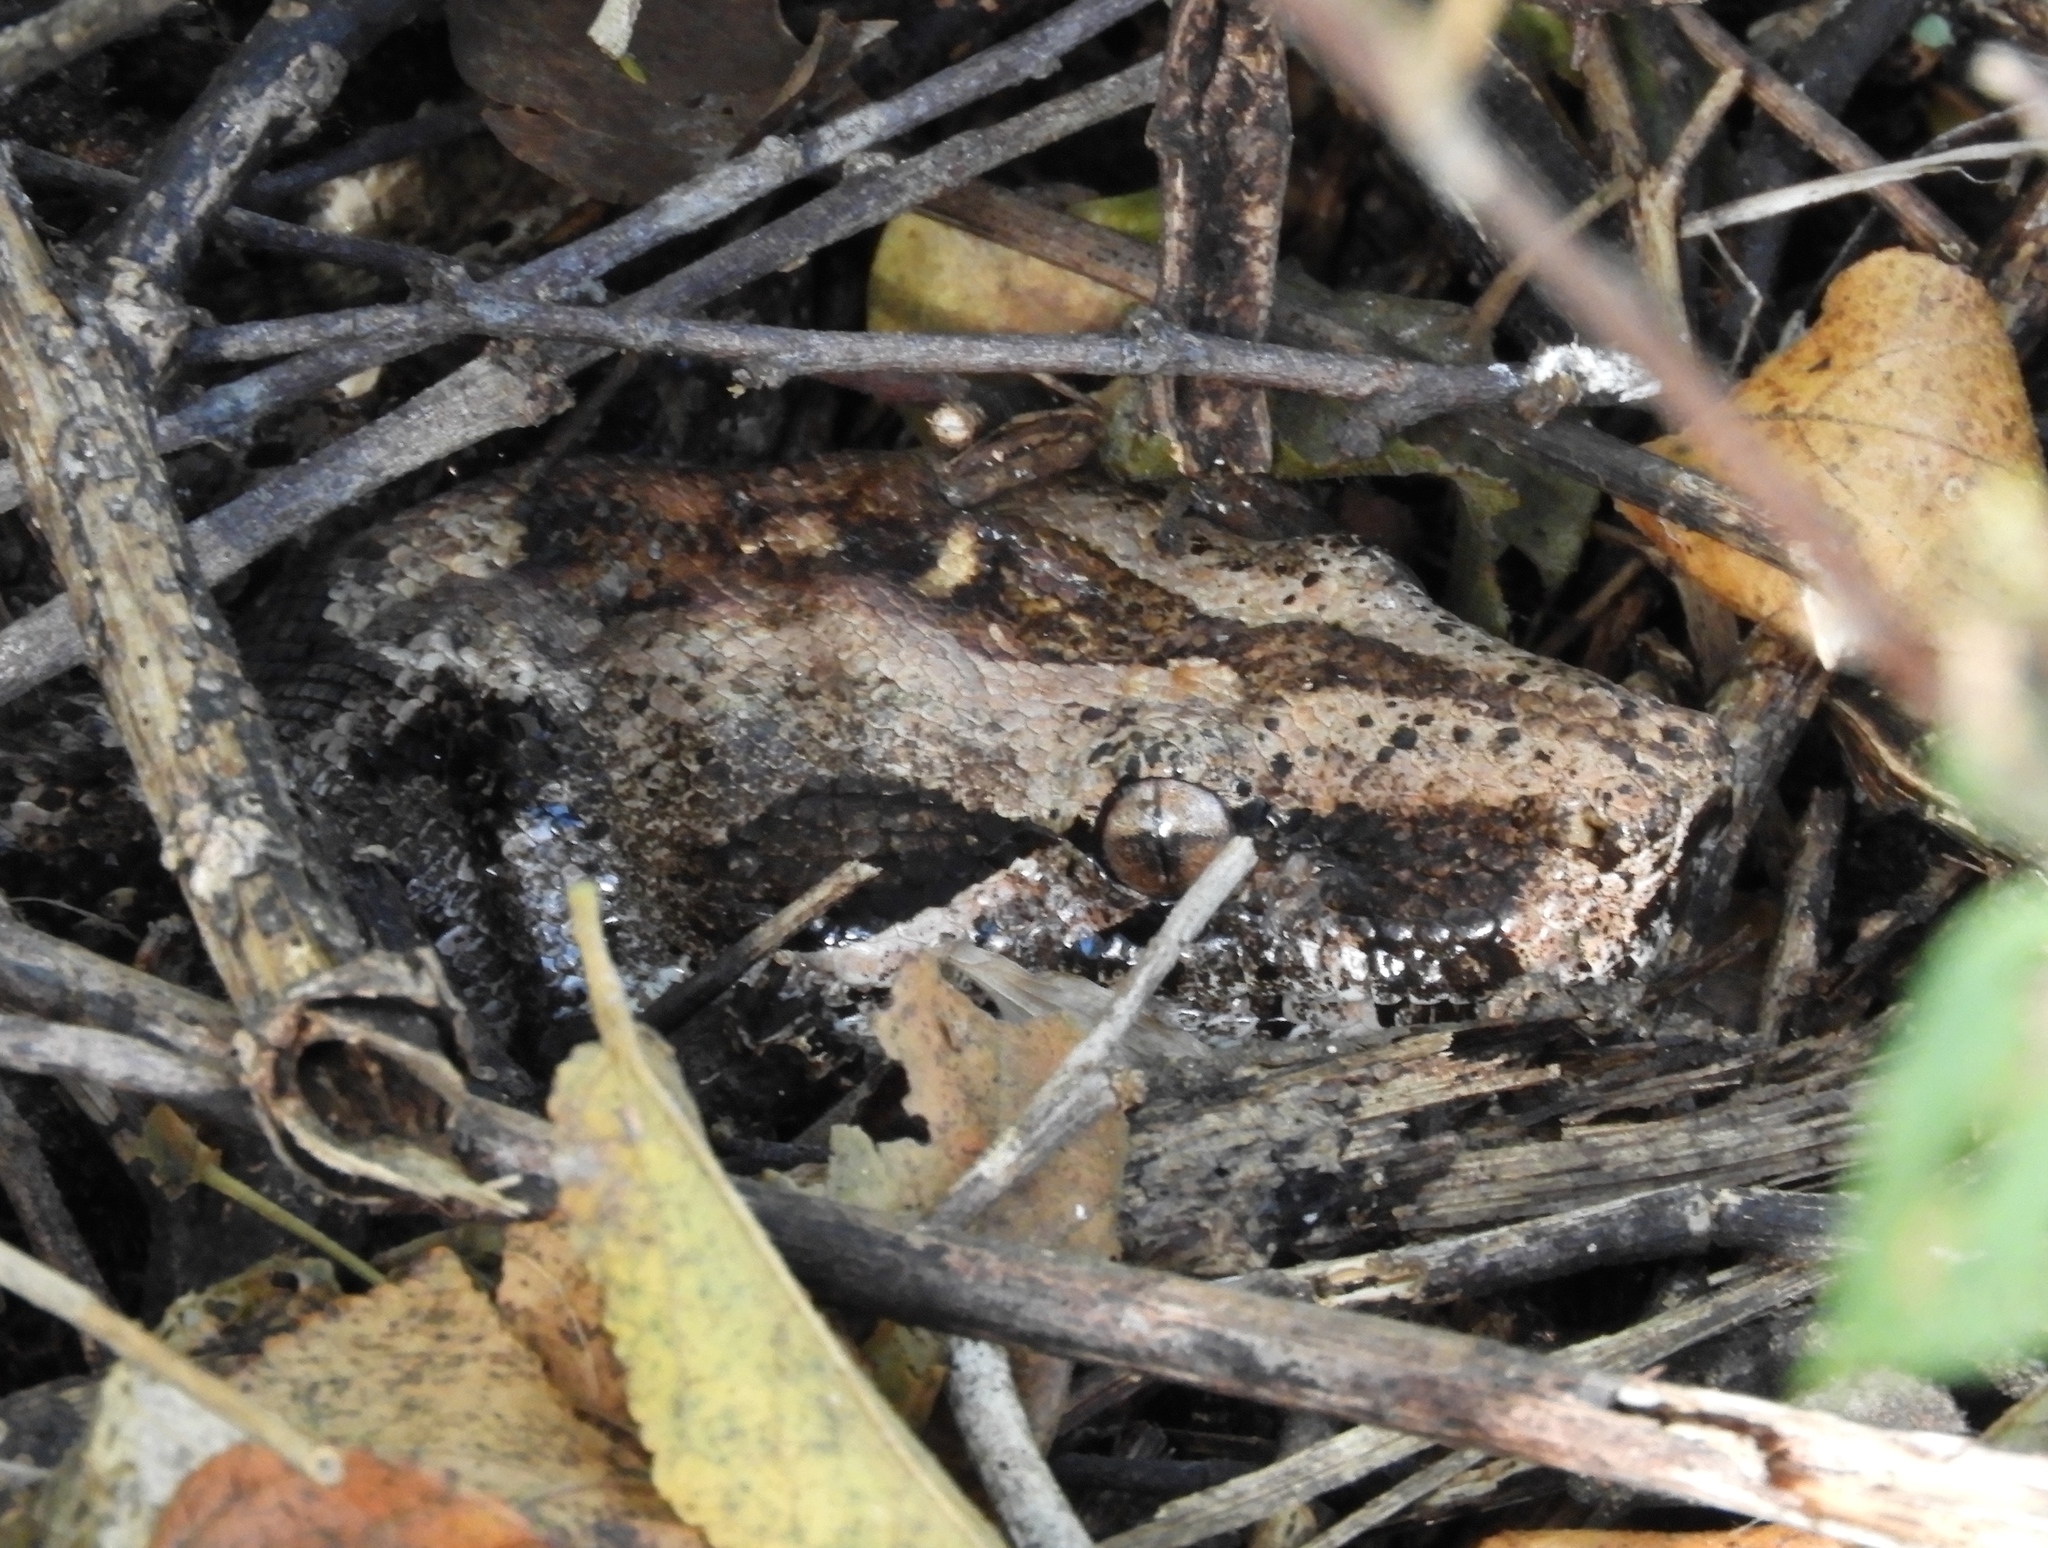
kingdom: Animalia
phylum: Chordata
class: Squamata
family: Boidae
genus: Boa
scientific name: Boa
